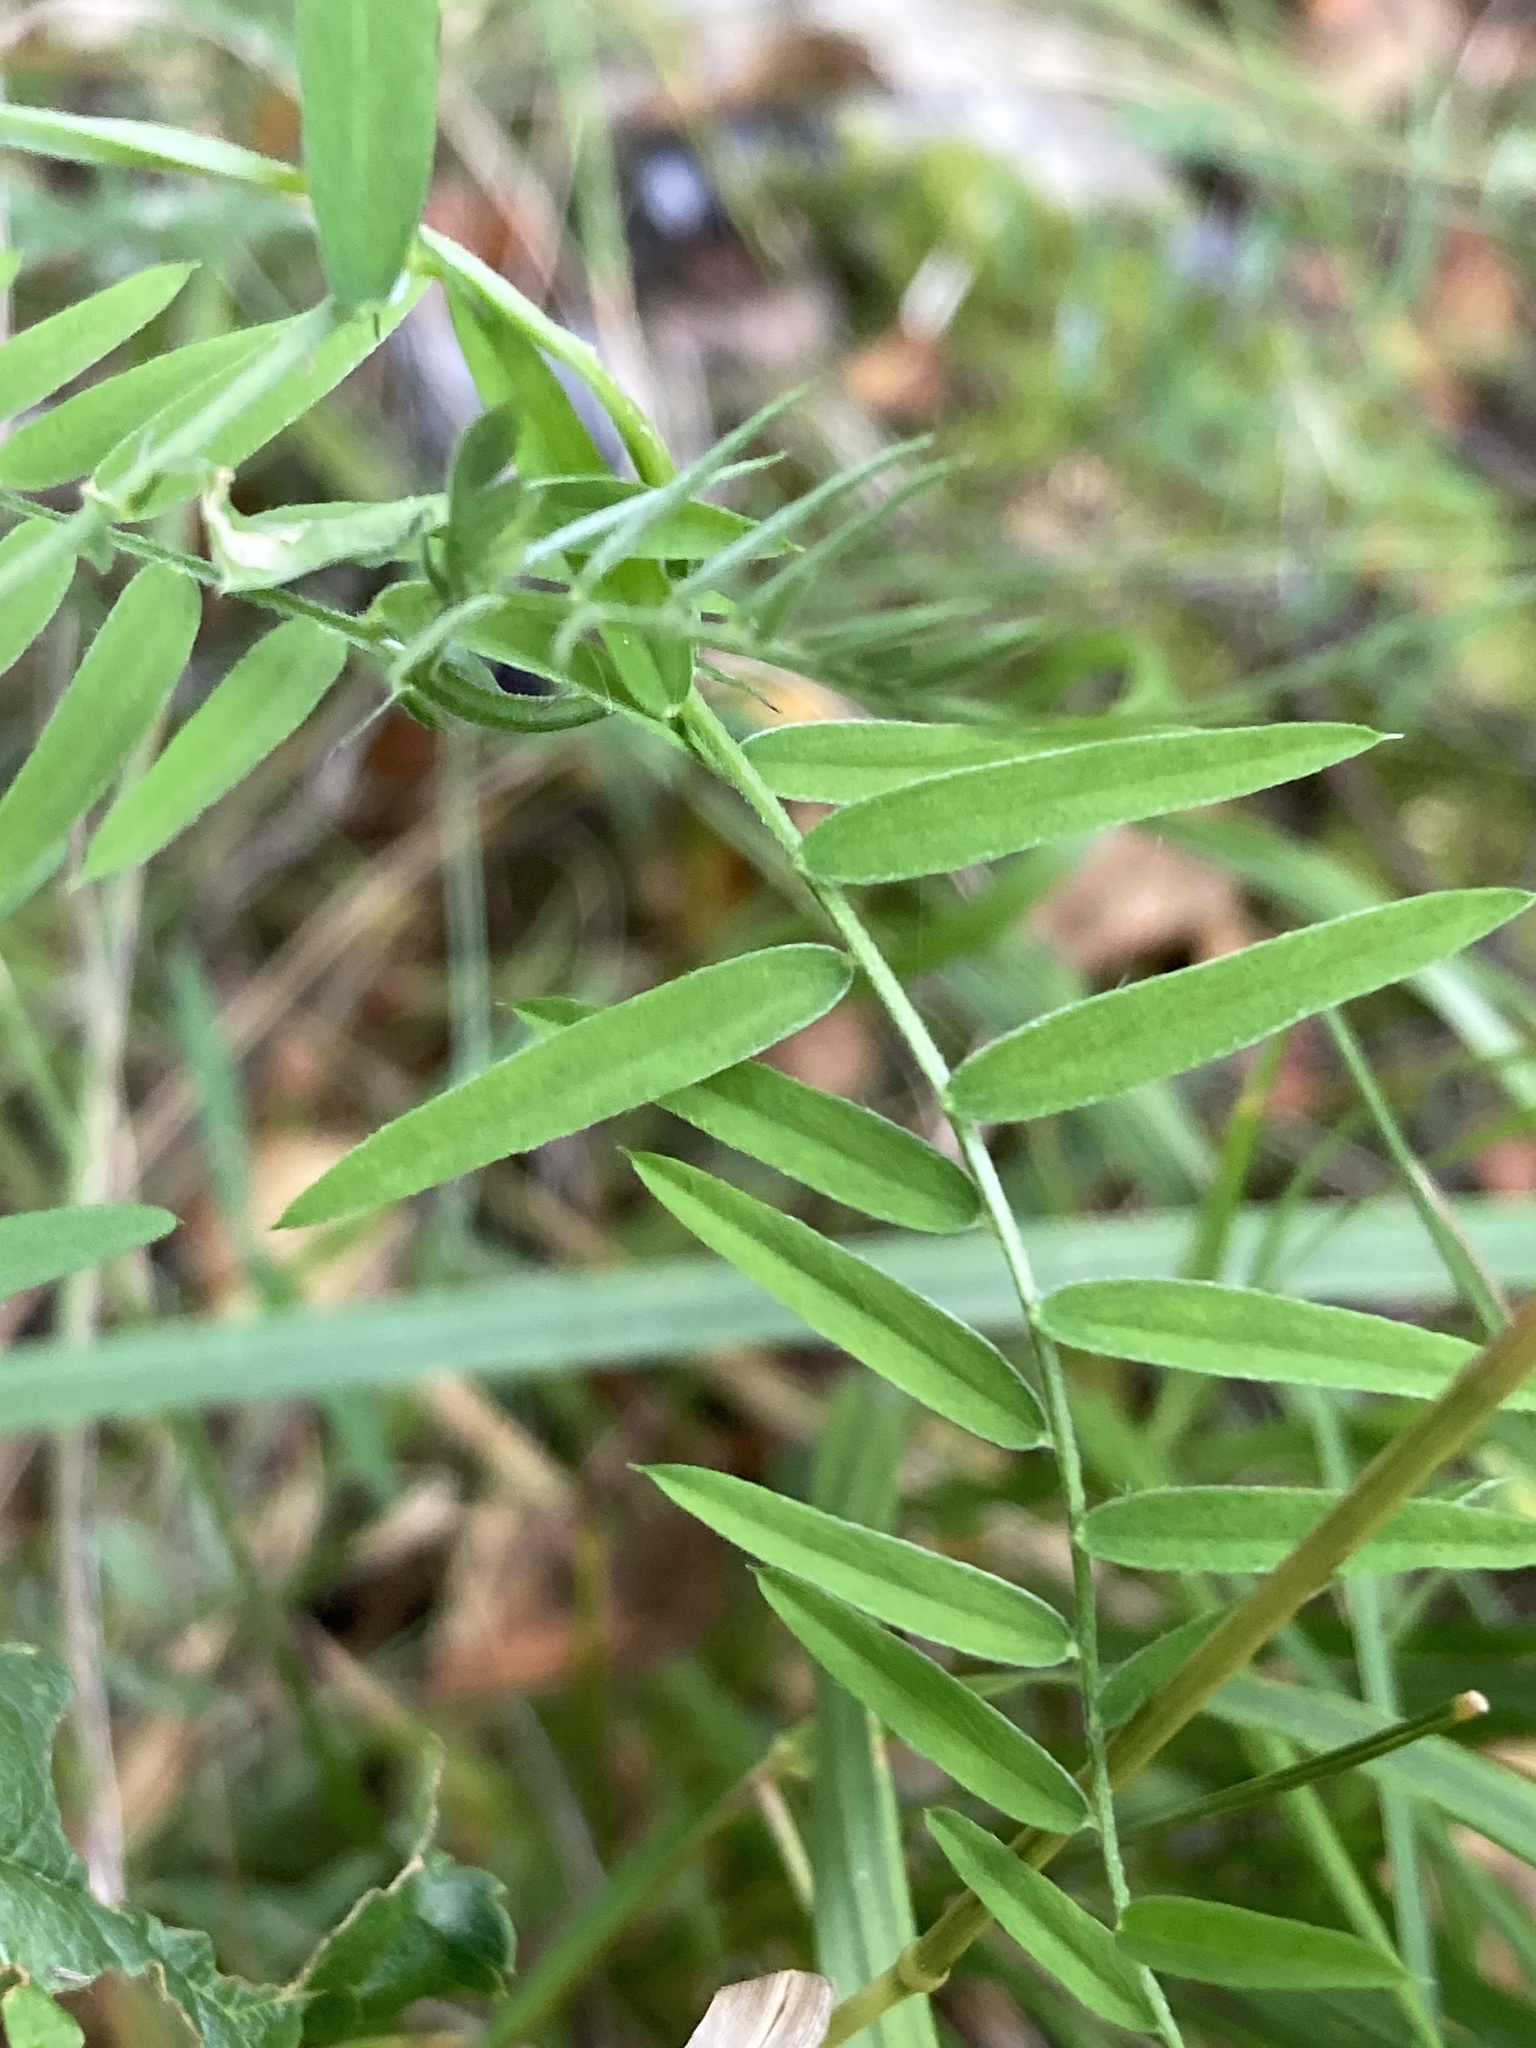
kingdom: Plantae
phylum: Tracheophyta
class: Magnoliopsida
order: Fabales
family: Fabaceae
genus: Vicia
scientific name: Vicia cracca
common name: Bird vetch
